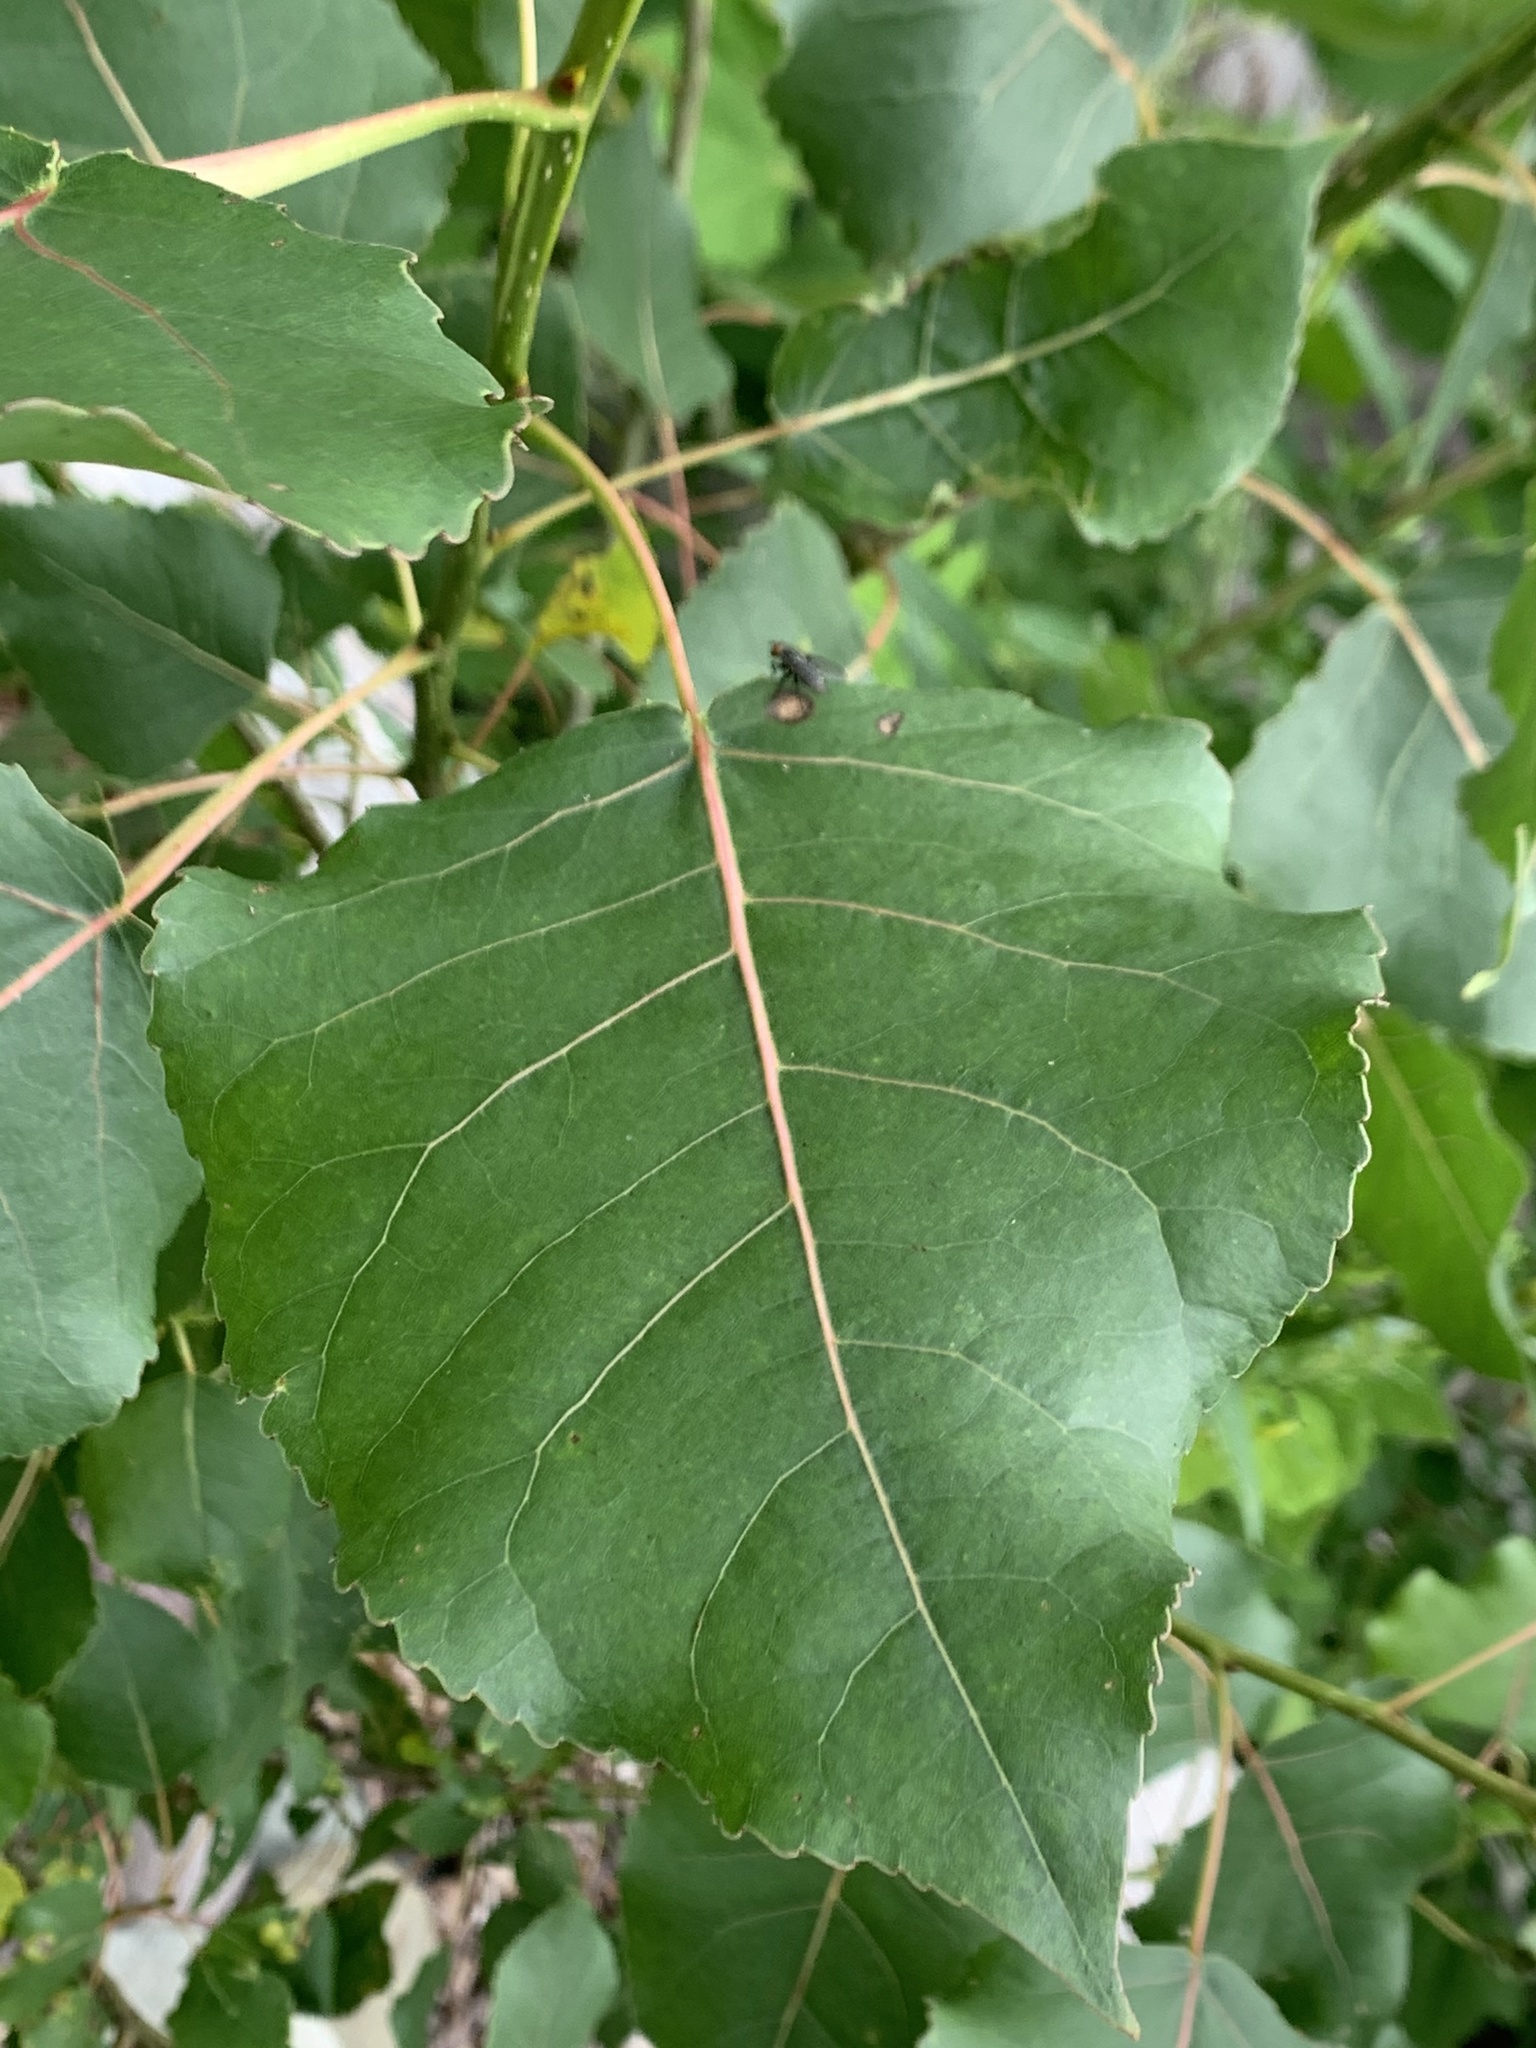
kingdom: Plantae
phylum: Tracheophyta
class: Magnoliopsida
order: Malpighiales
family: Salicaceae
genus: Populus
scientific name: Populus deltoides
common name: Eastern cottonwood
